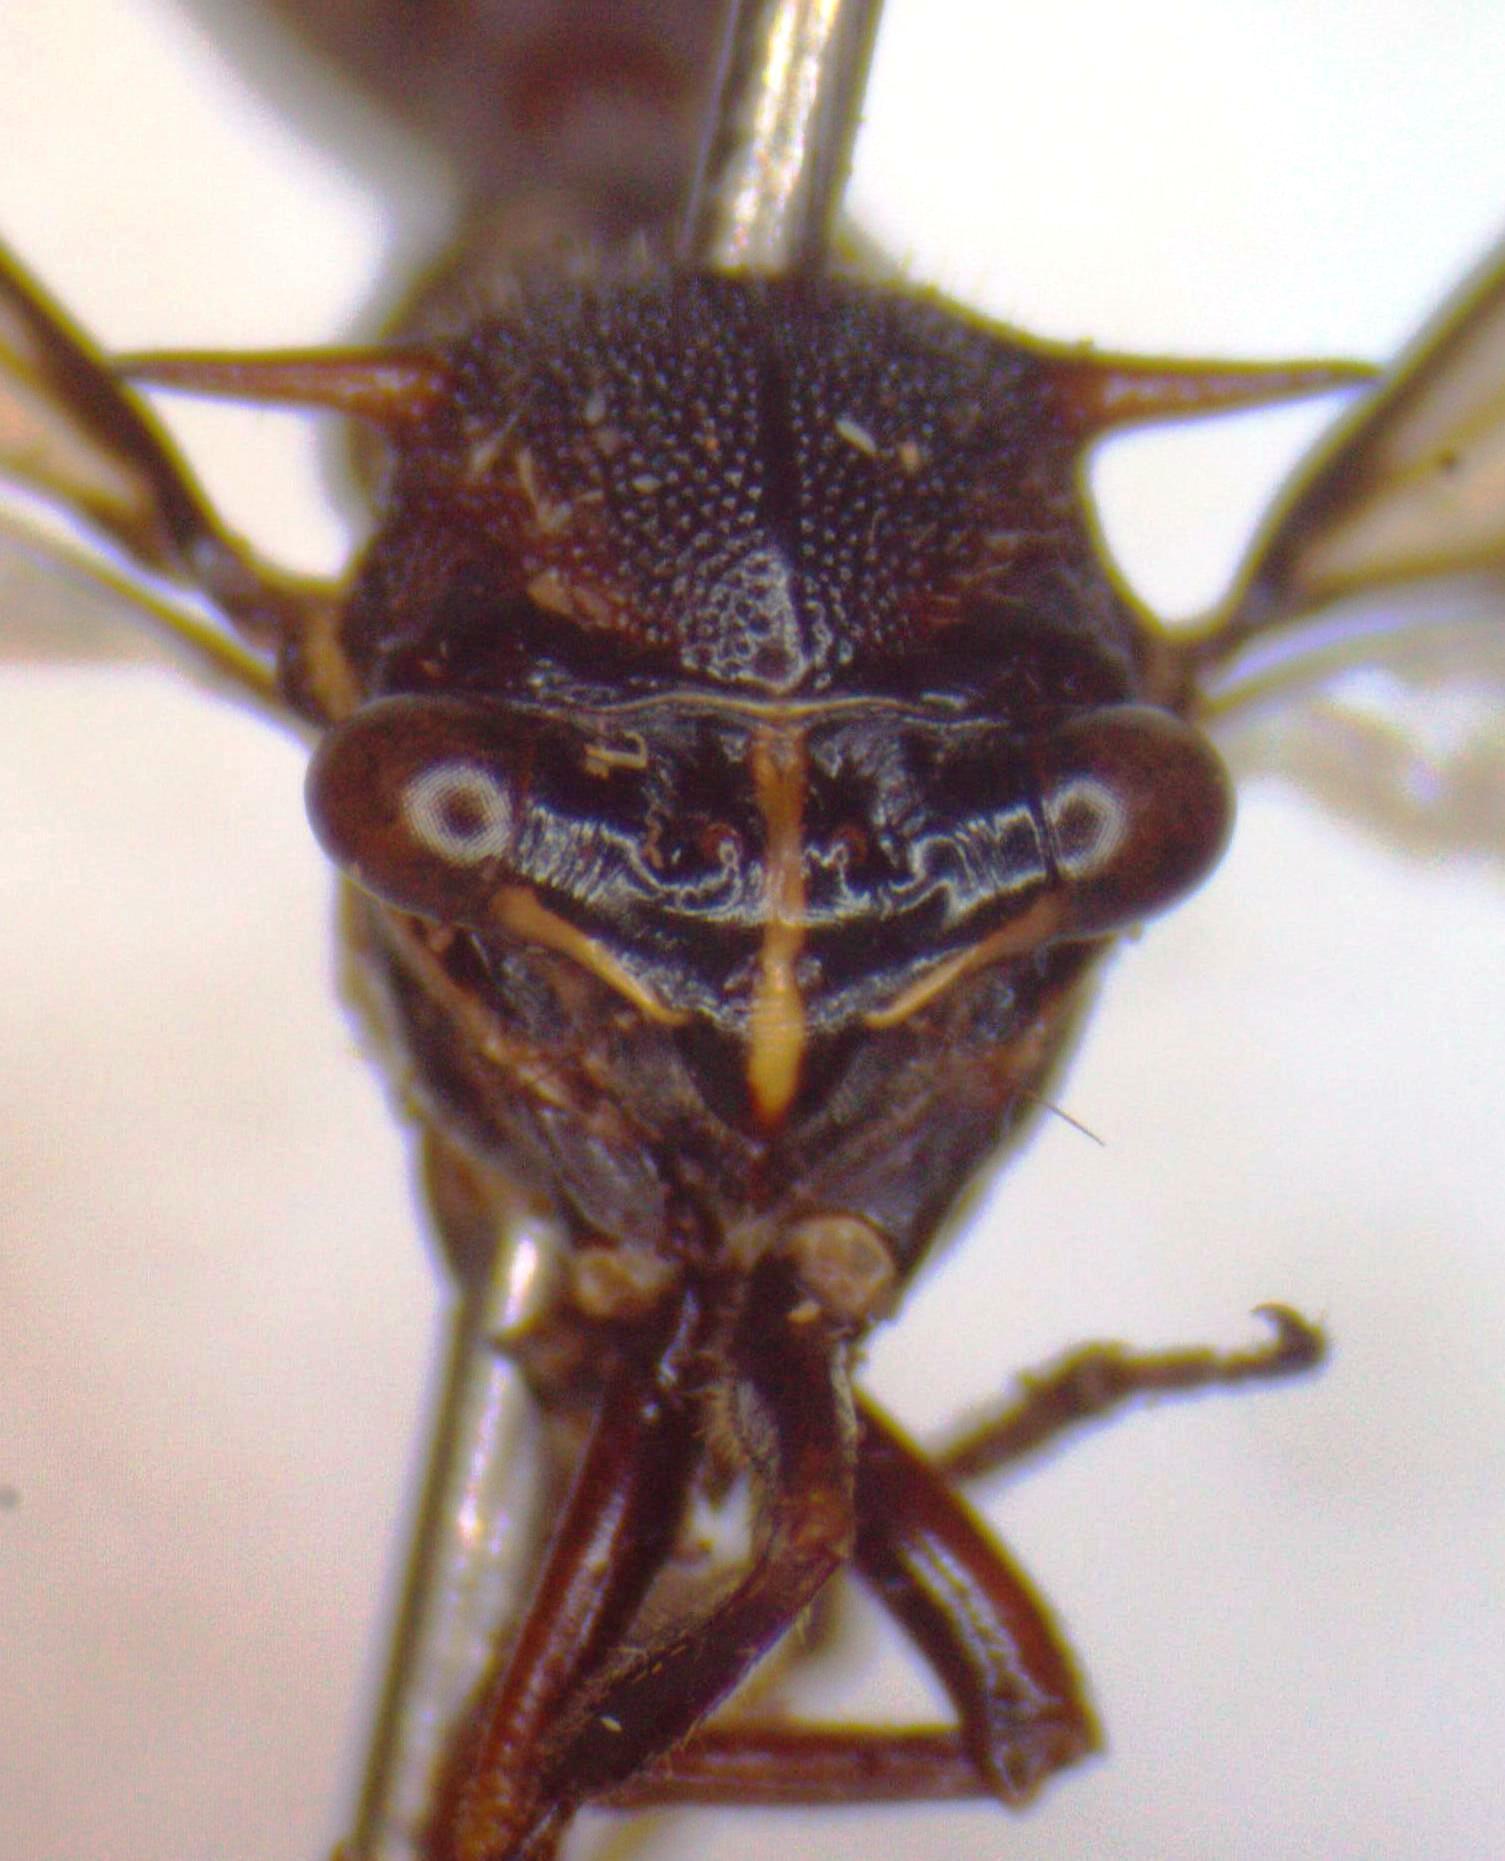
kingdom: Animalia
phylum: Arthropoda
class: Insecta
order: Hemiptera
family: Membracidae
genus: Heteronotus
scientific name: Heteronotus trinodosus
